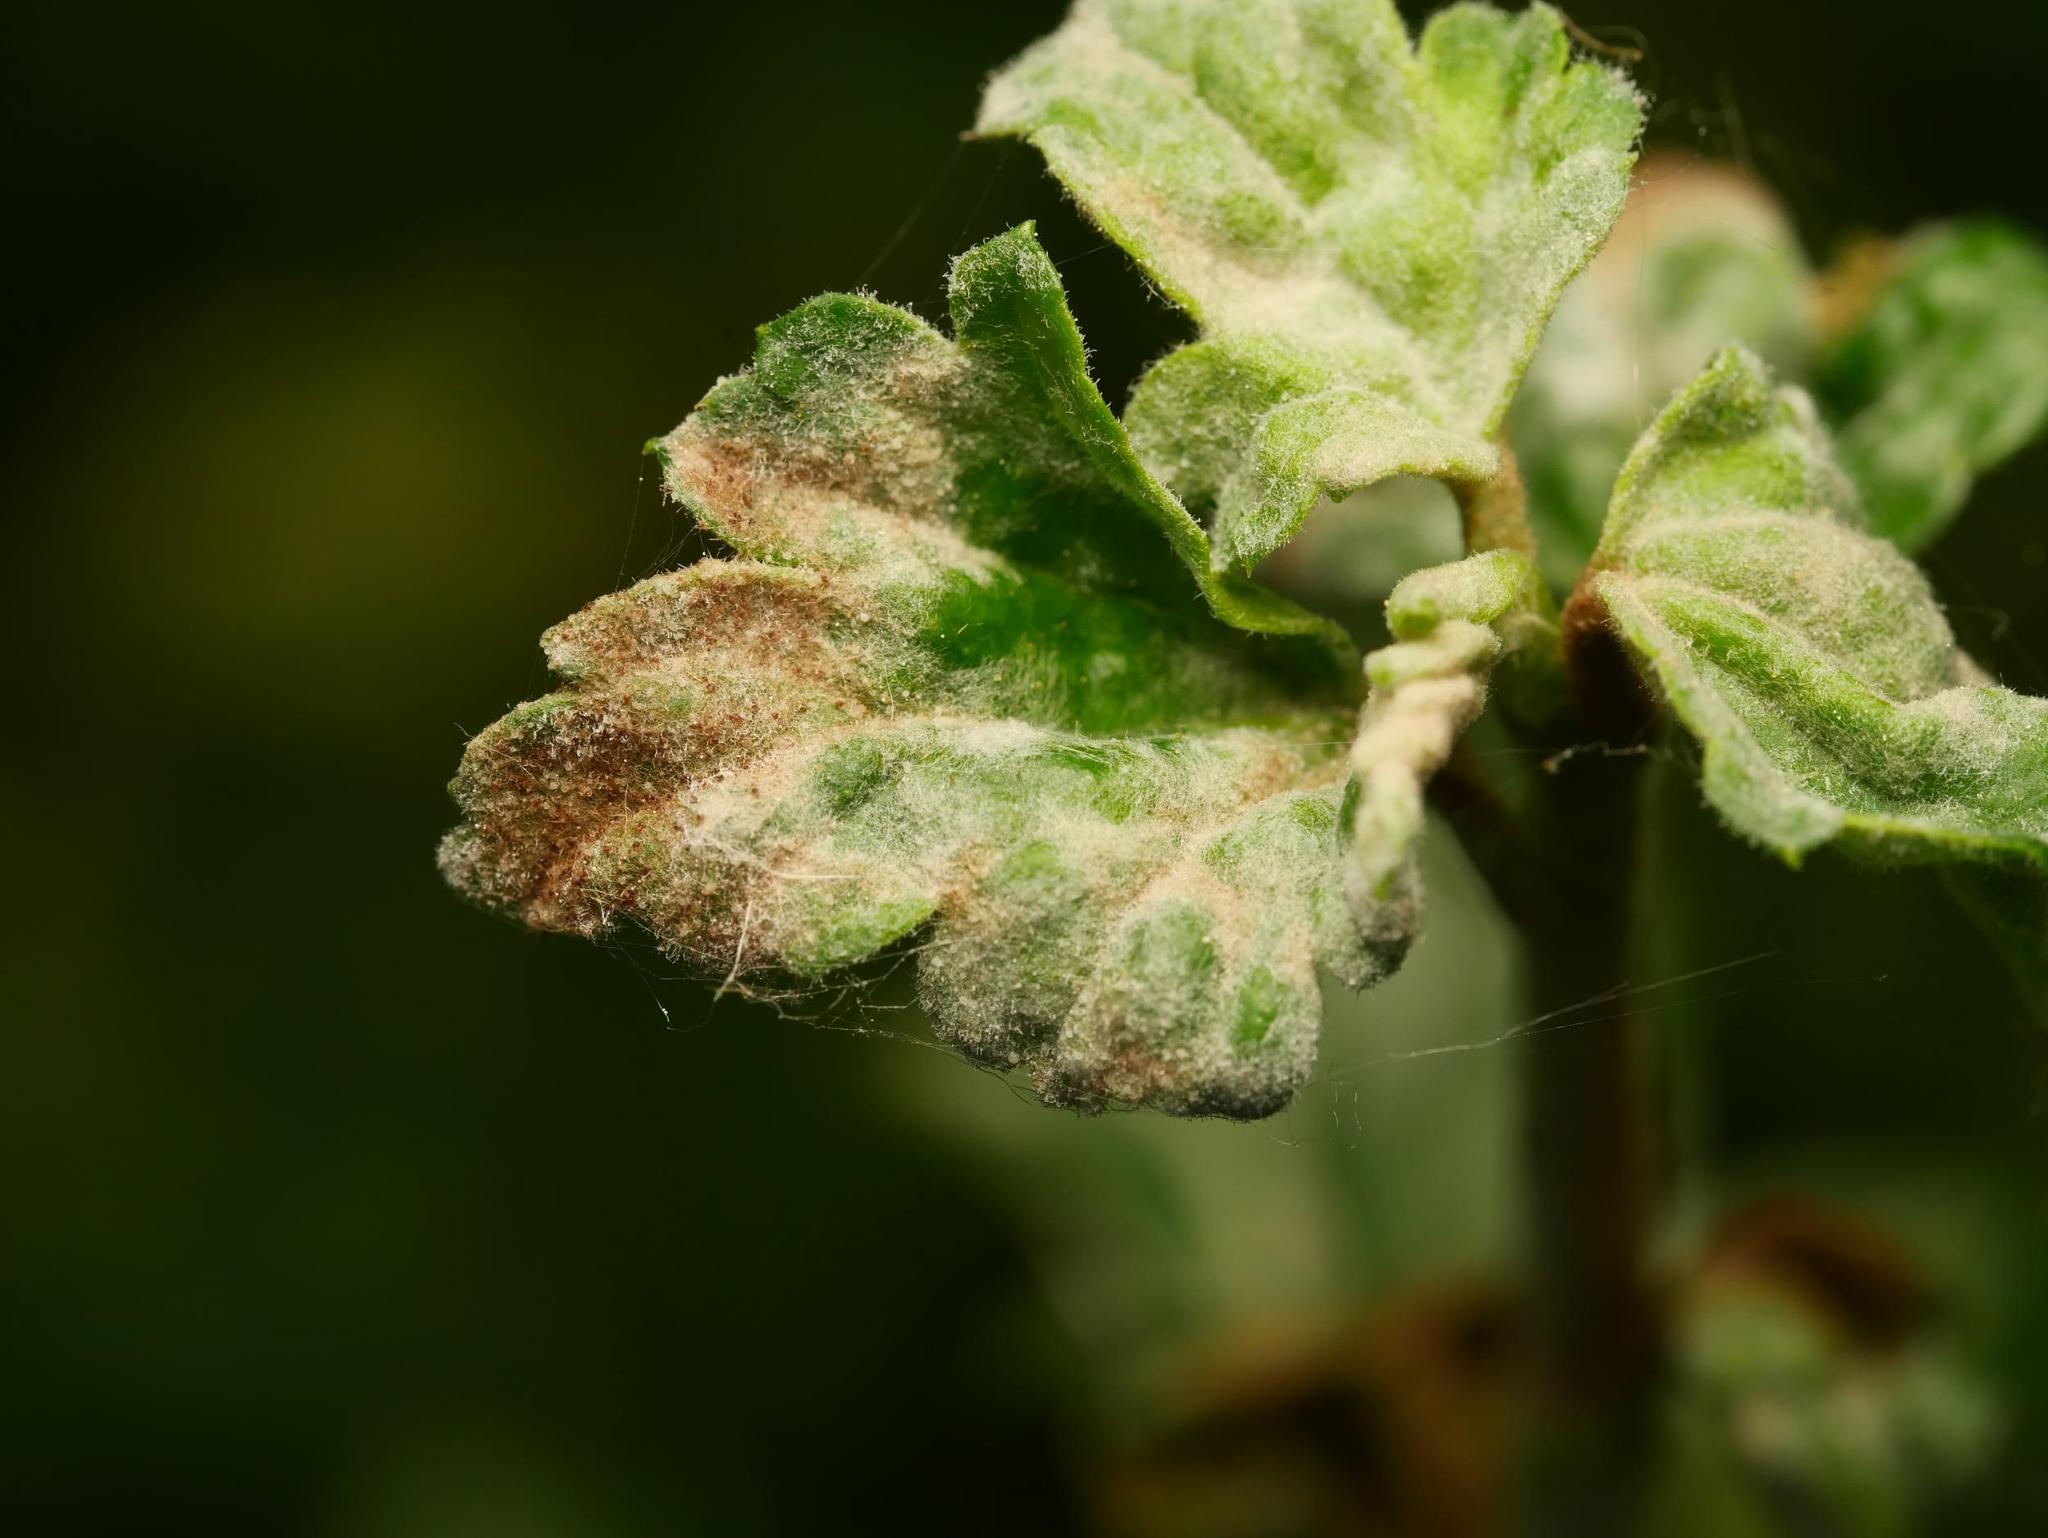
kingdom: Fungi
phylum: Ascomycota
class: Leotiomycetes
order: Helotiales
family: Erysiphaceae
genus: Podosphaera
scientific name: Podosphaera mors-uvae
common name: American gooseberry mildew
